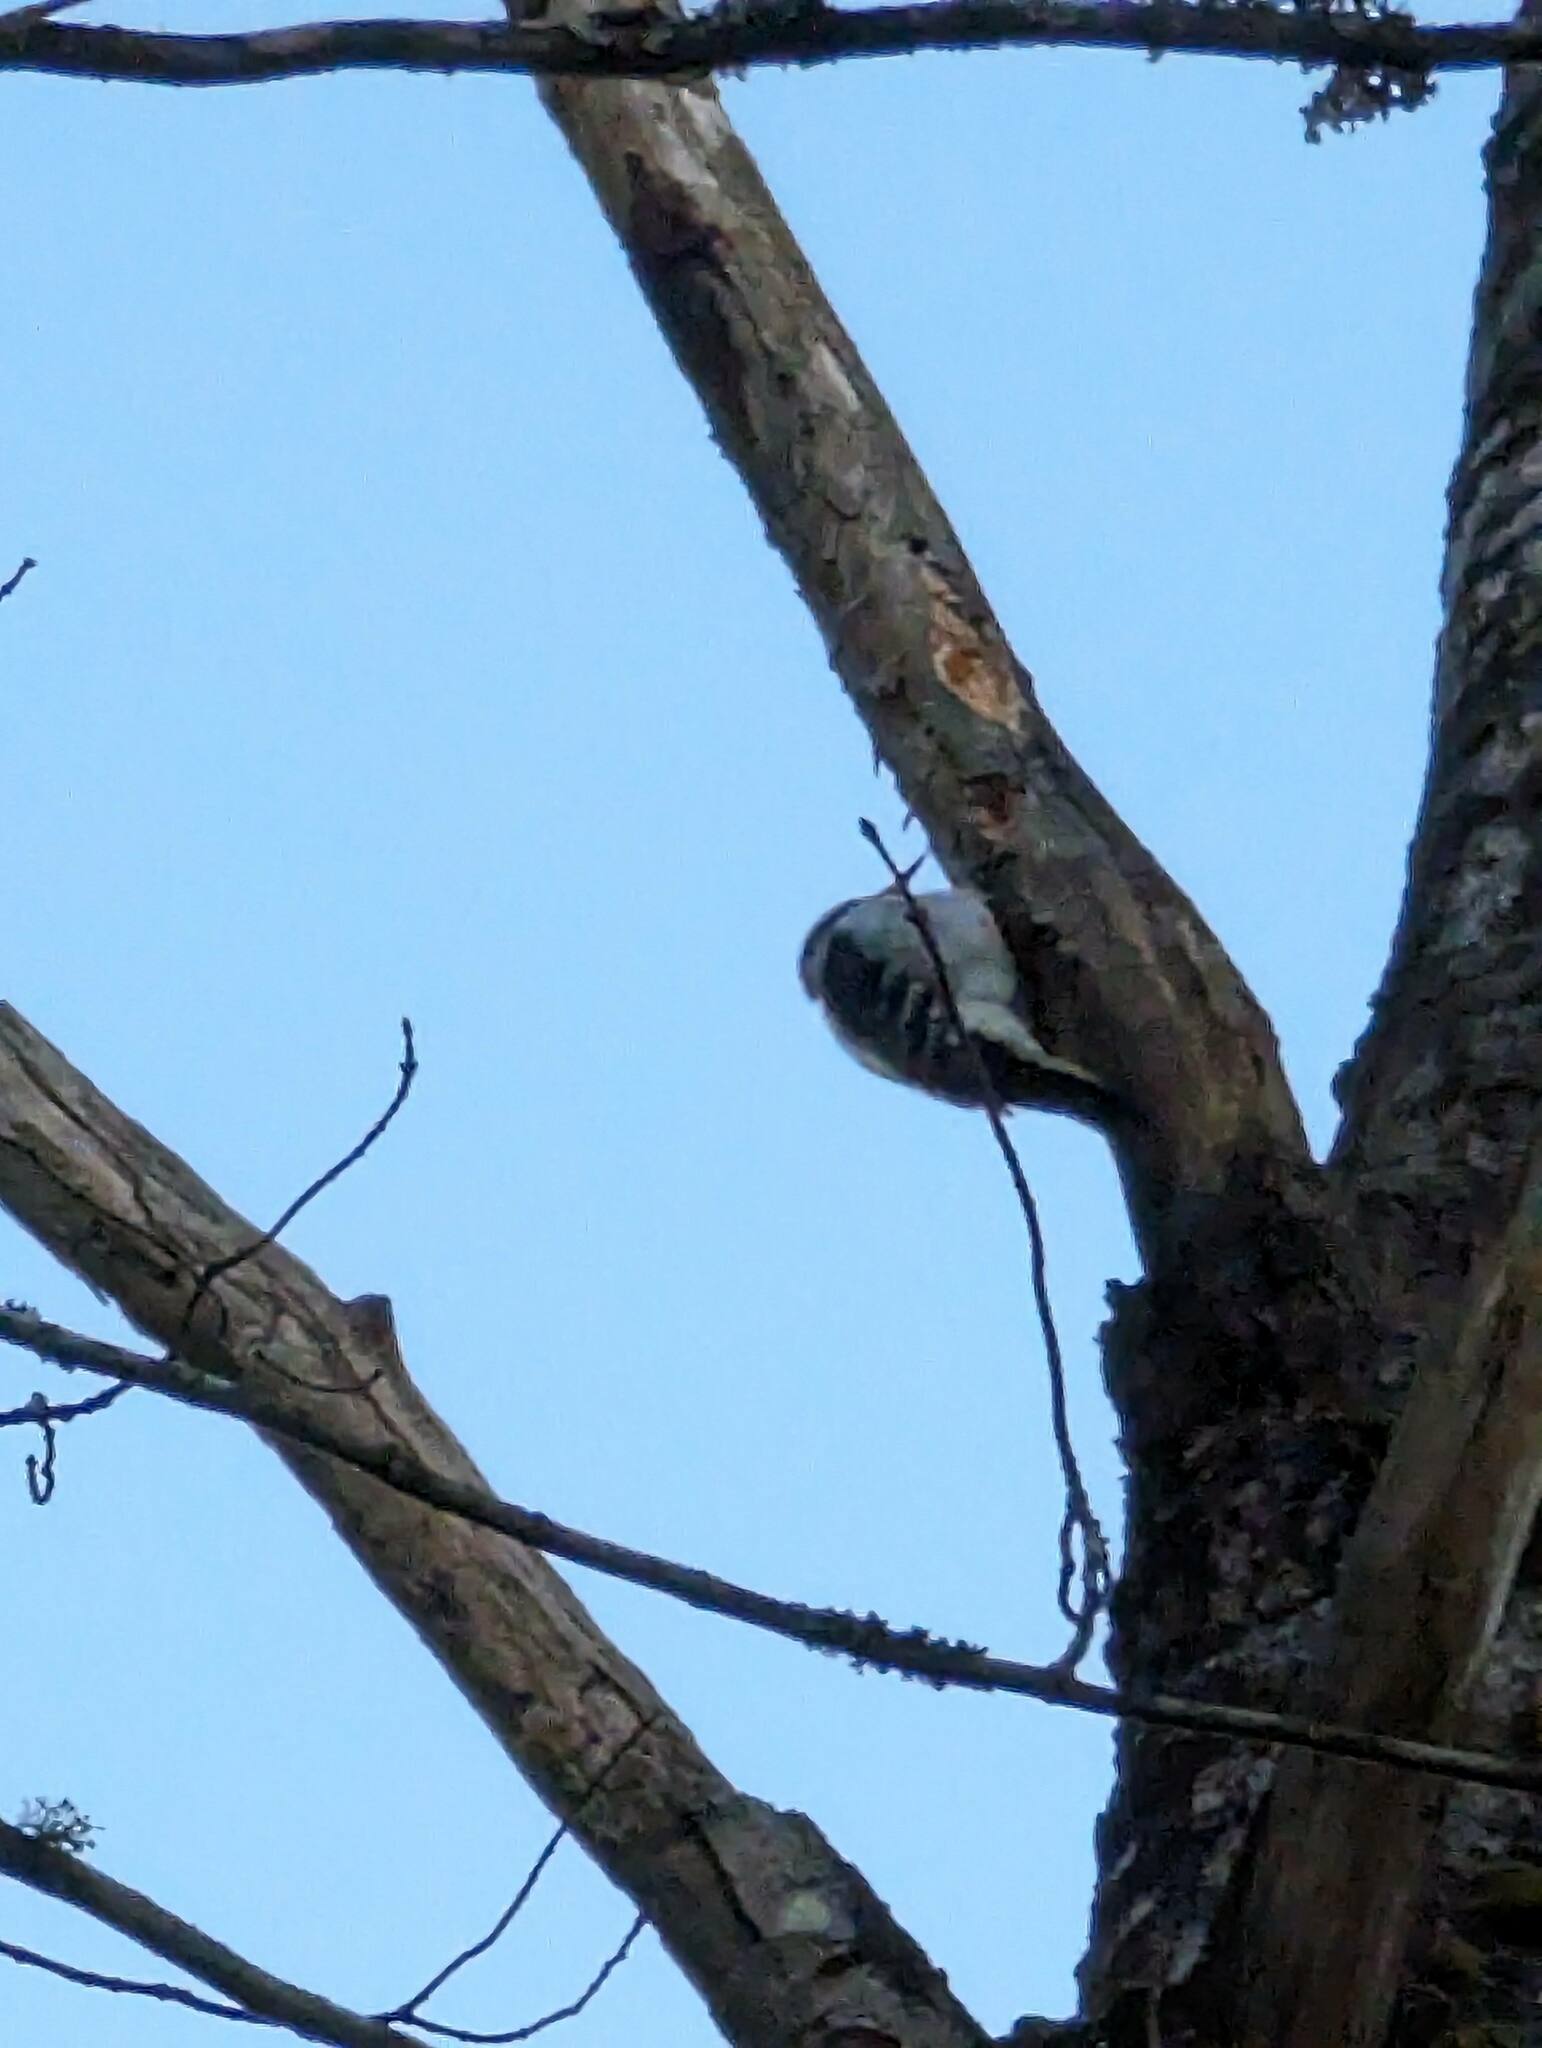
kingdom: Animalia
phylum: Chordata
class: Aves
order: Piciformes
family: Picidae
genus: Dryobates
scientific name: Dryobates pubescens
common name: Downy woodpecker
